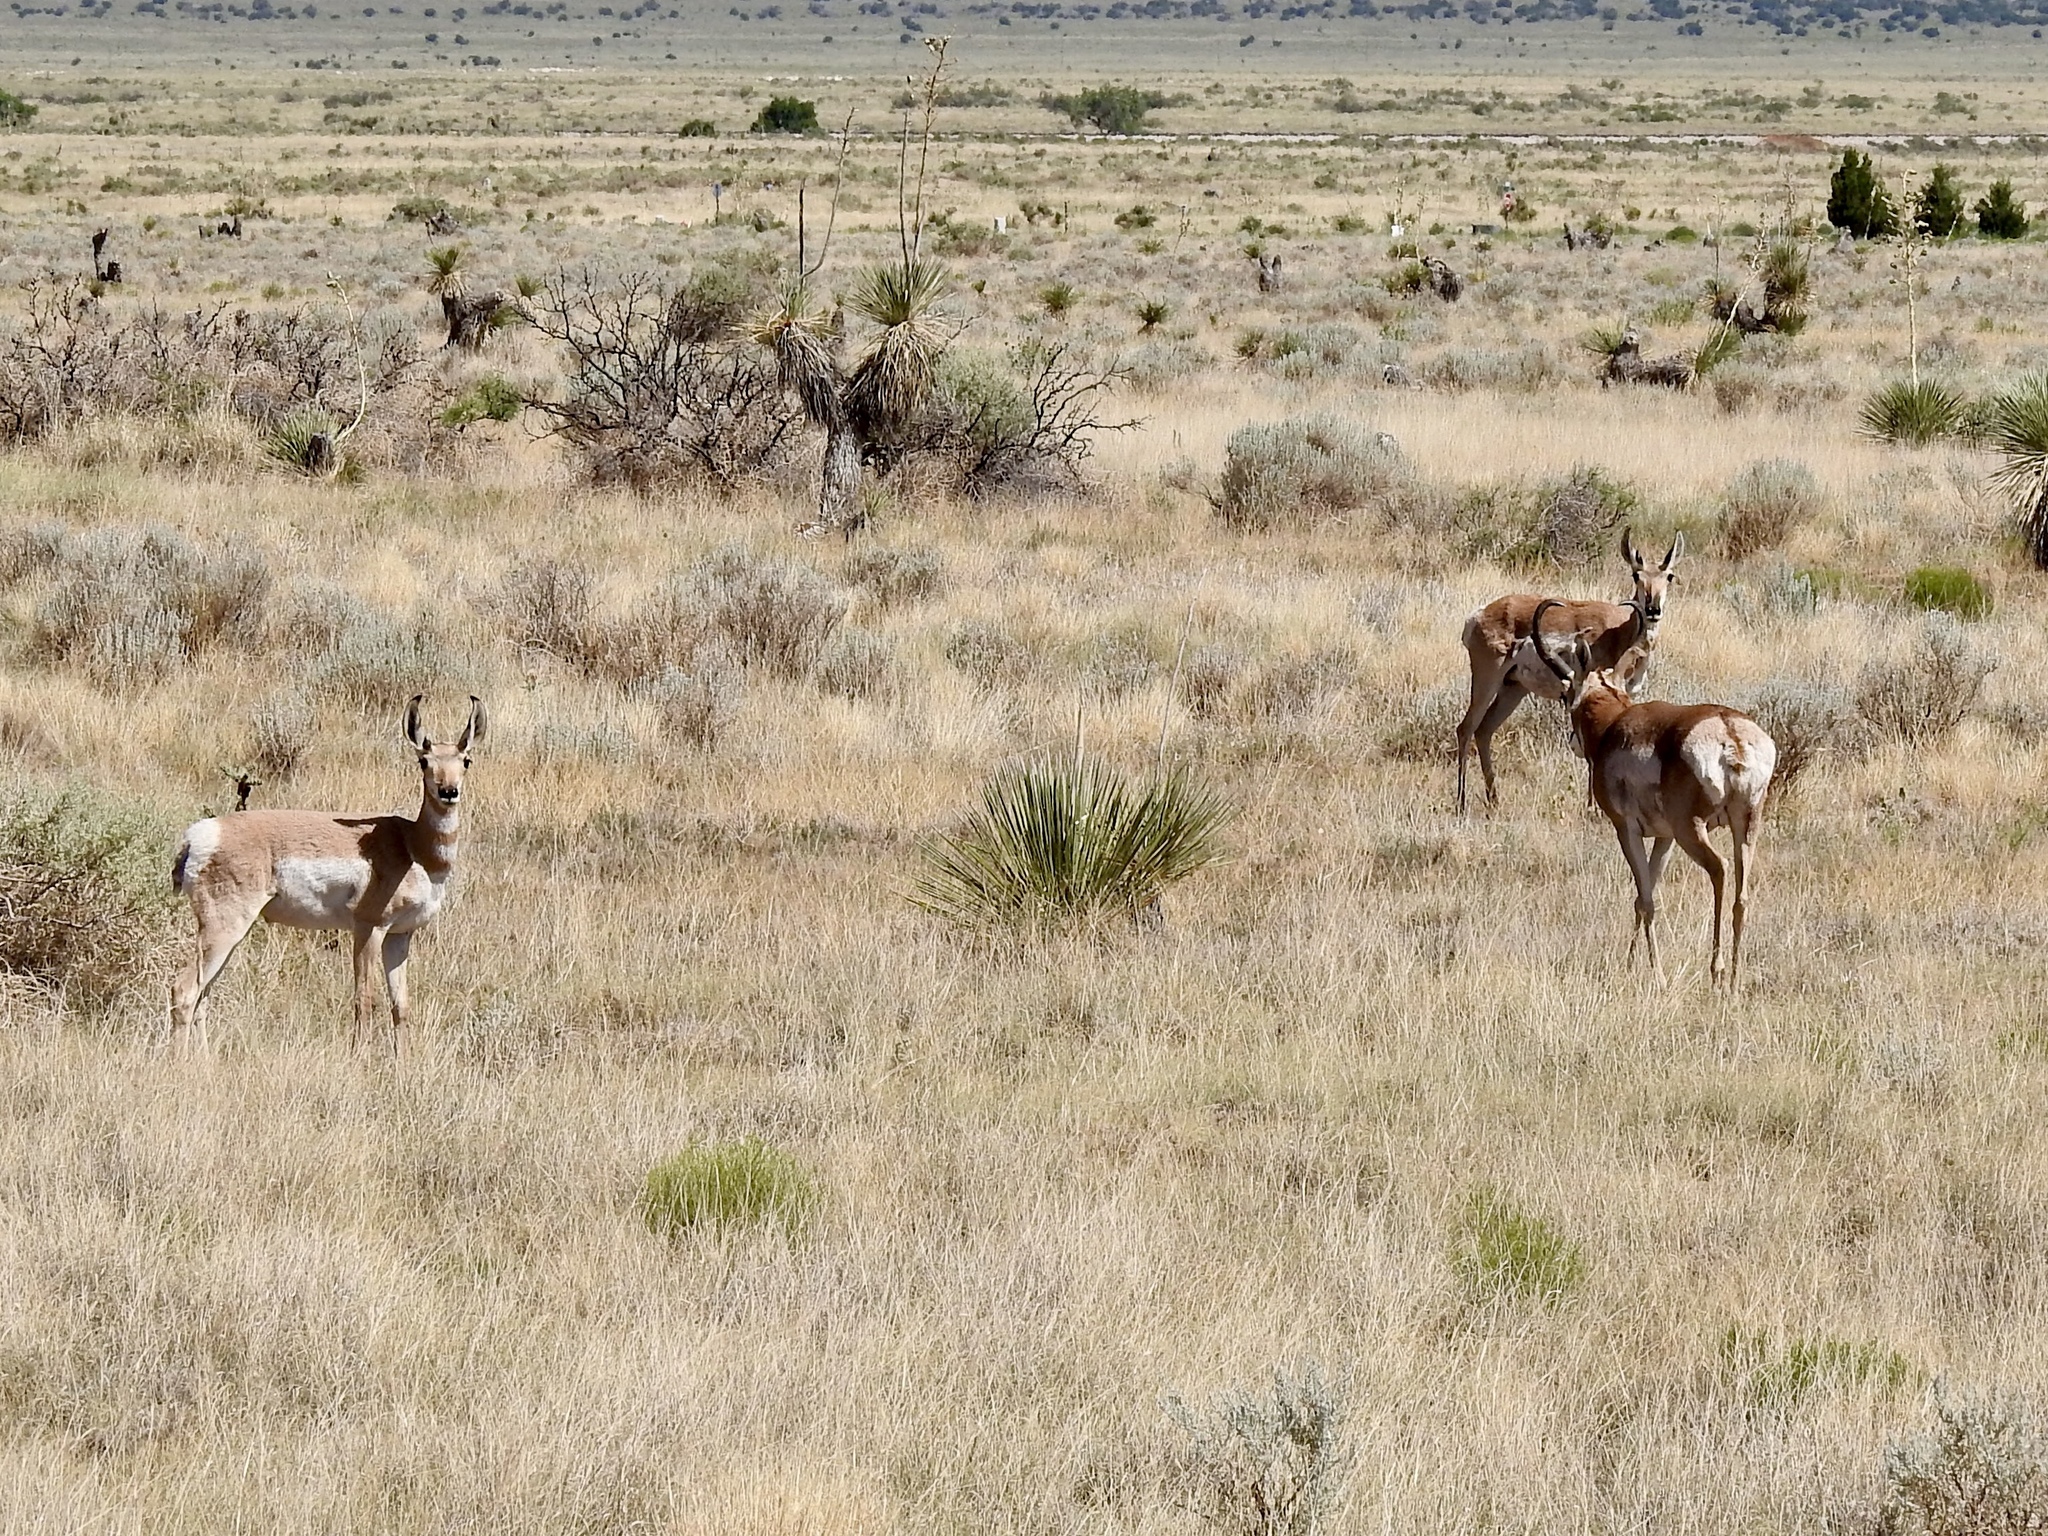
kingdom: Animalia
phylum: Chordata
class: Mammalia
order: Artiodactyla
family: Antilocapridae
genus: Antilocapra
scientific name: Antilocapra americana
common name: Pronghorn
